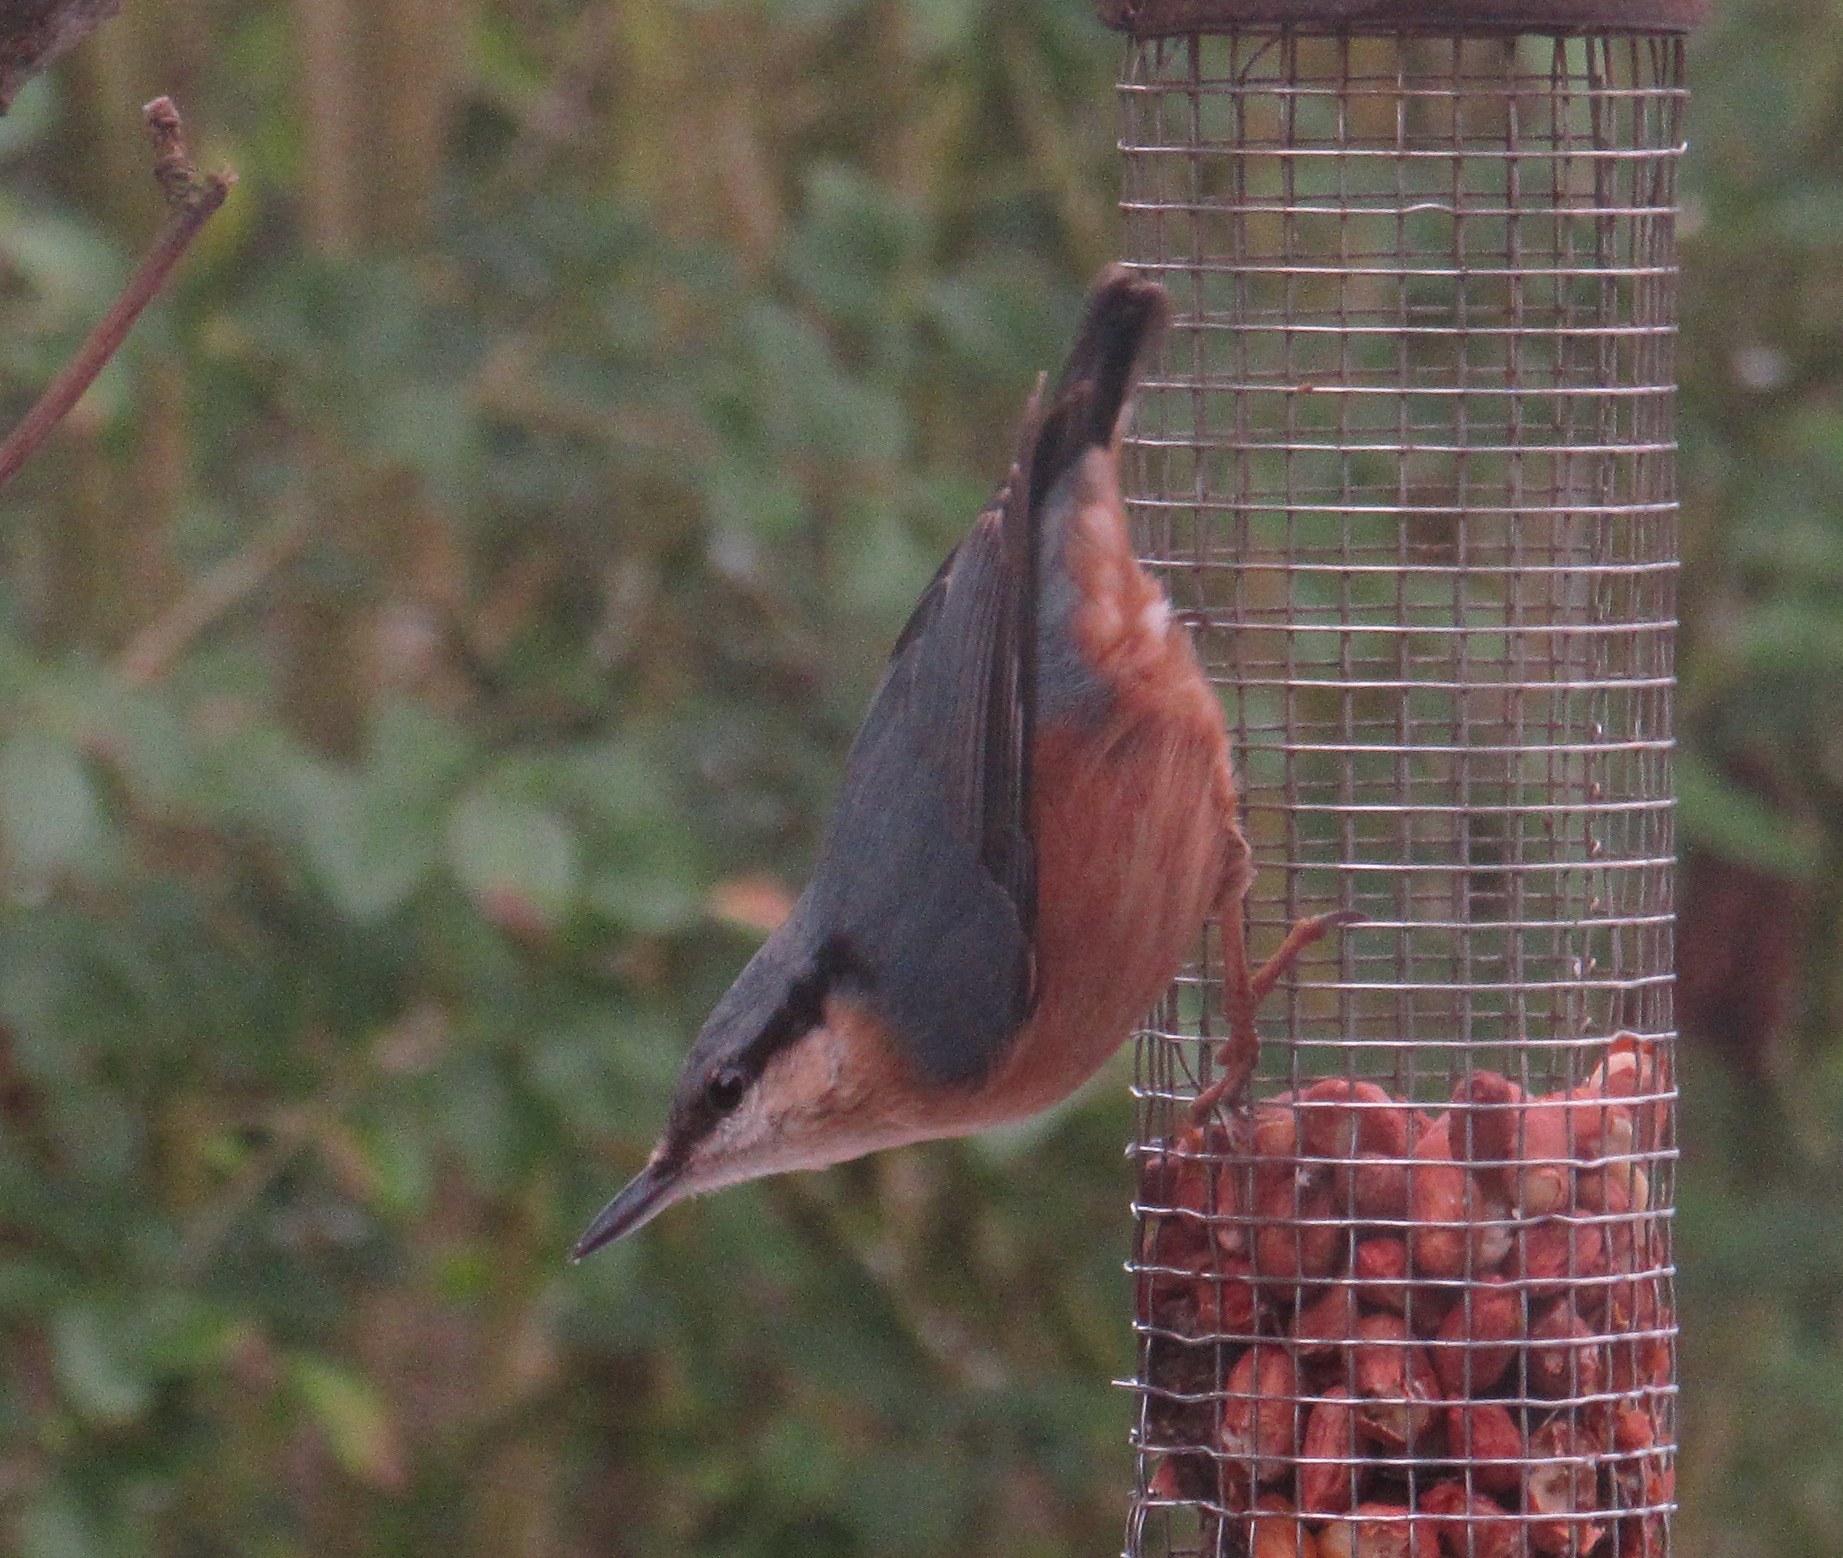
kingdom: Animalia
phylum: Chordata
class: Aves
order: Passeriformes
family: Sittidae
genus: Sitta
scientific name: Sitta europaea
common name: Eurasian nuthatch
